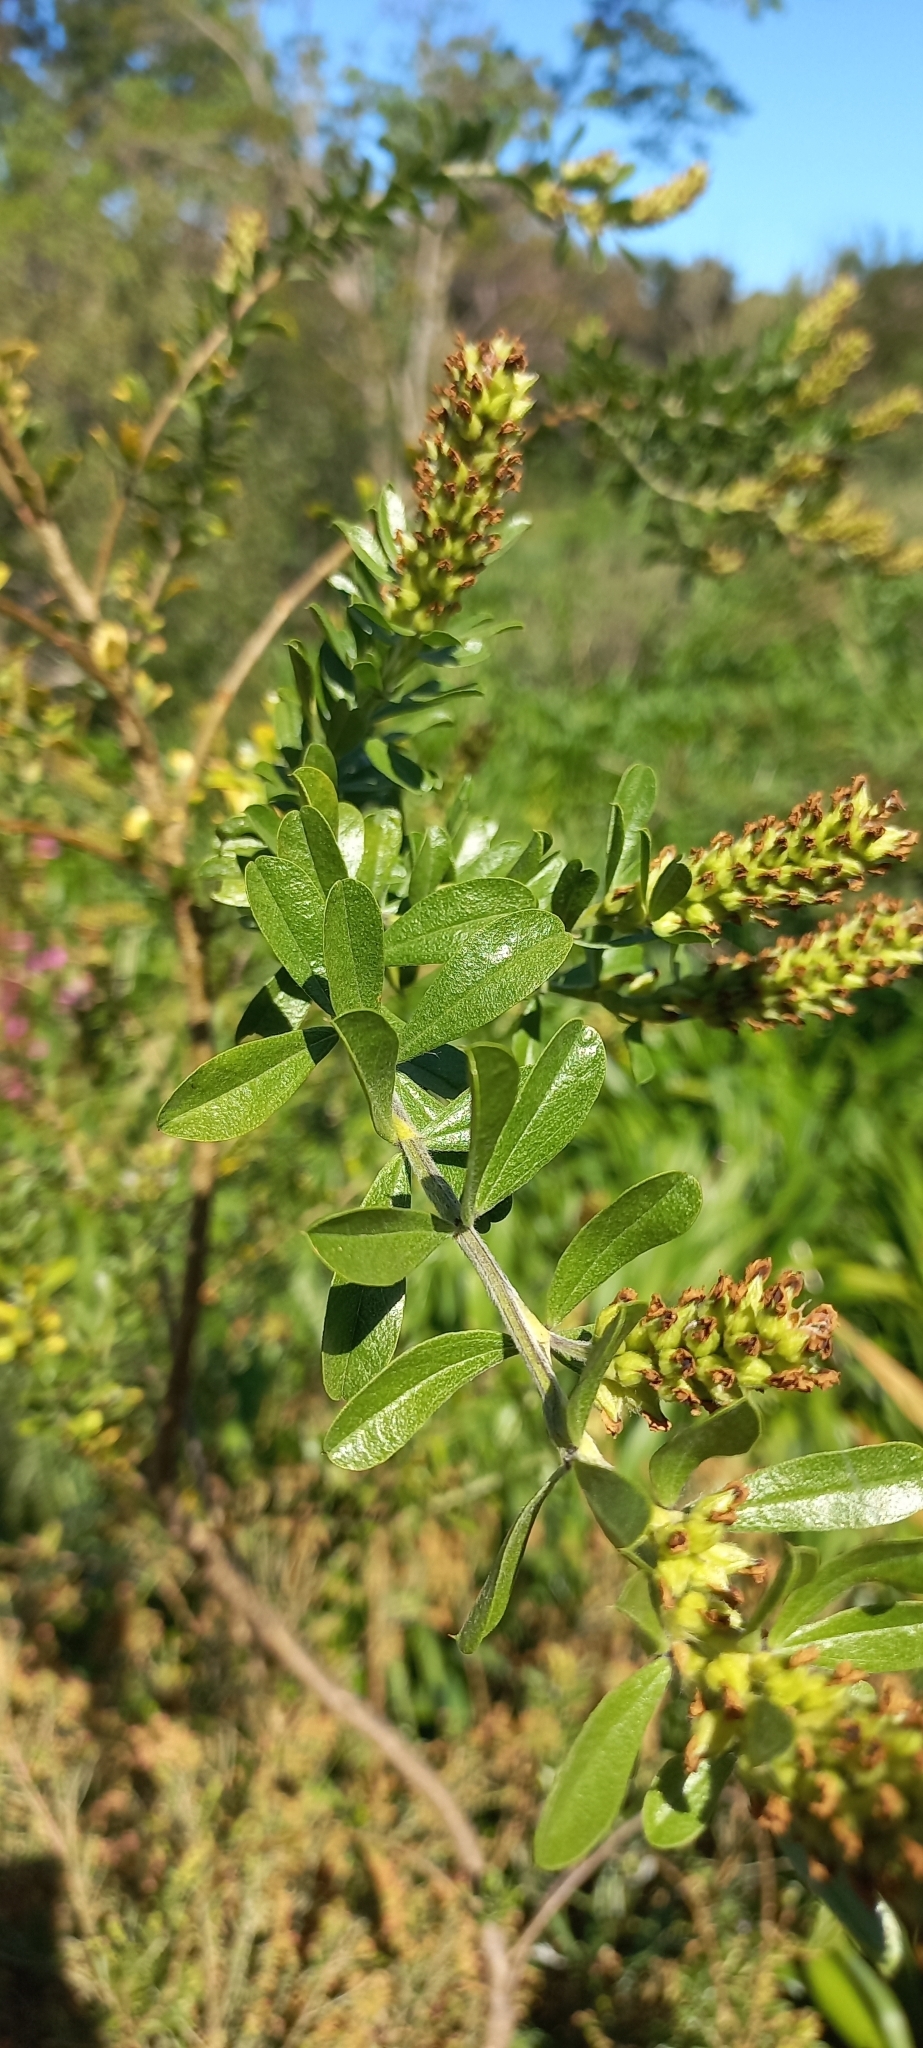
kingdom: Plantae
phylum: Tracheophyta
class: Magnoliopsida
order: Fabales
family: Fabaceae
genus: Psoralea
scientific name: Psoralea spicata
